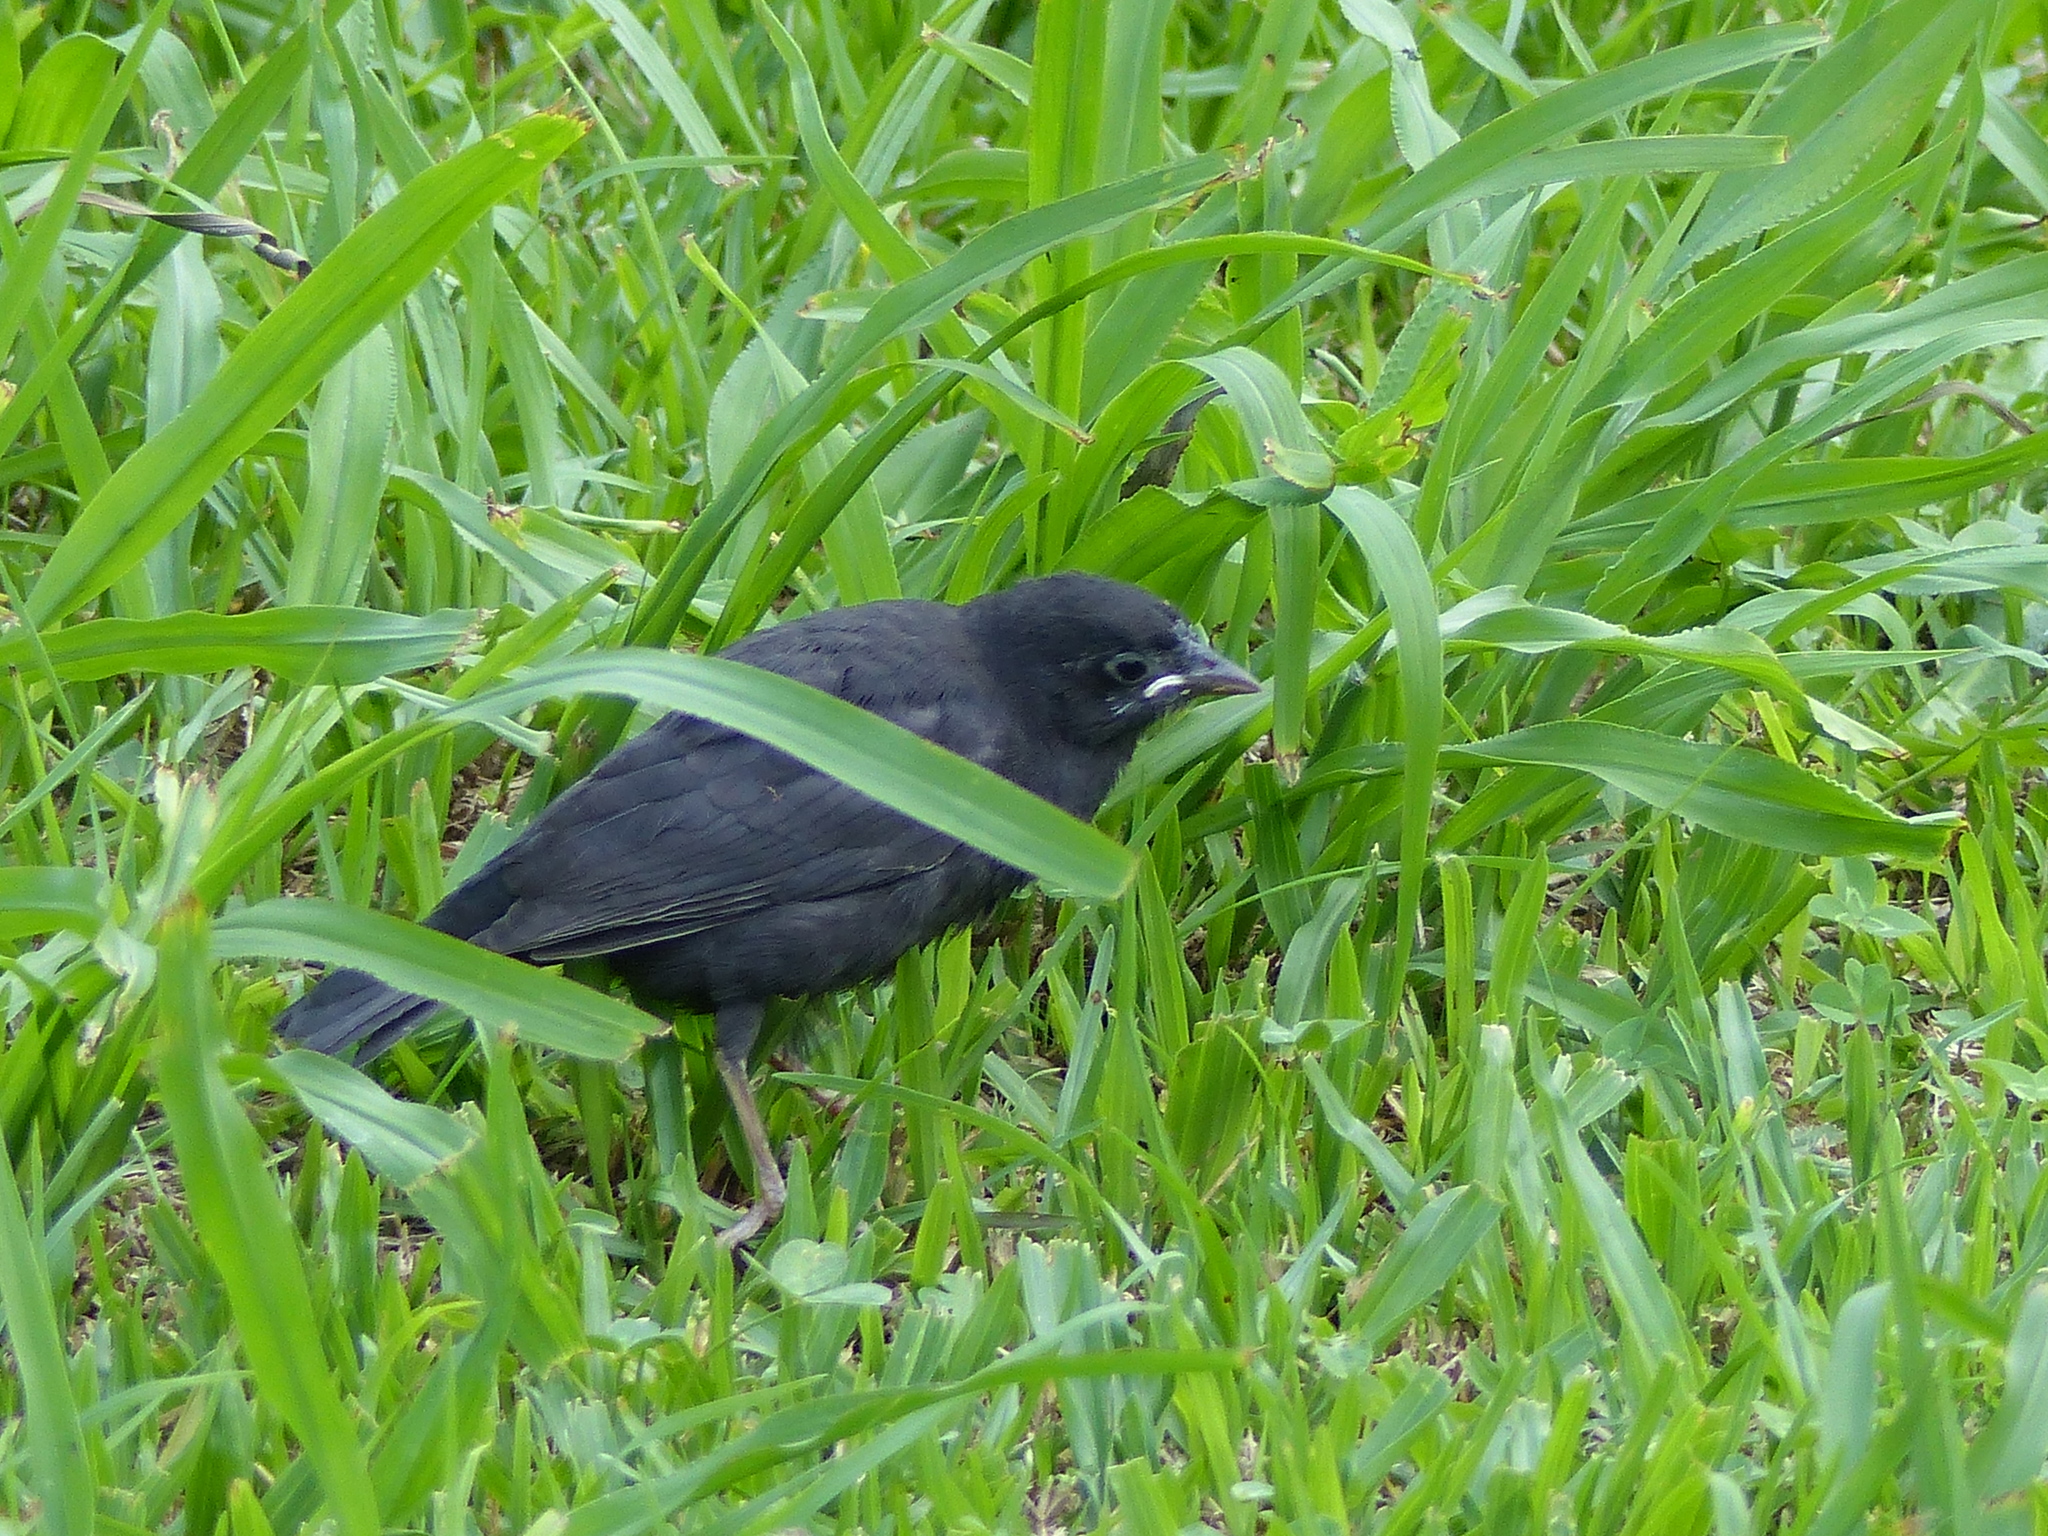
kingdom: Animalia
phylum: Chordata
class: Aves
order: Passeriformes
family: Icteridae
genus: Molothrus
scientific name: Molothrus bonariensis
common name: Shiny cowbird
